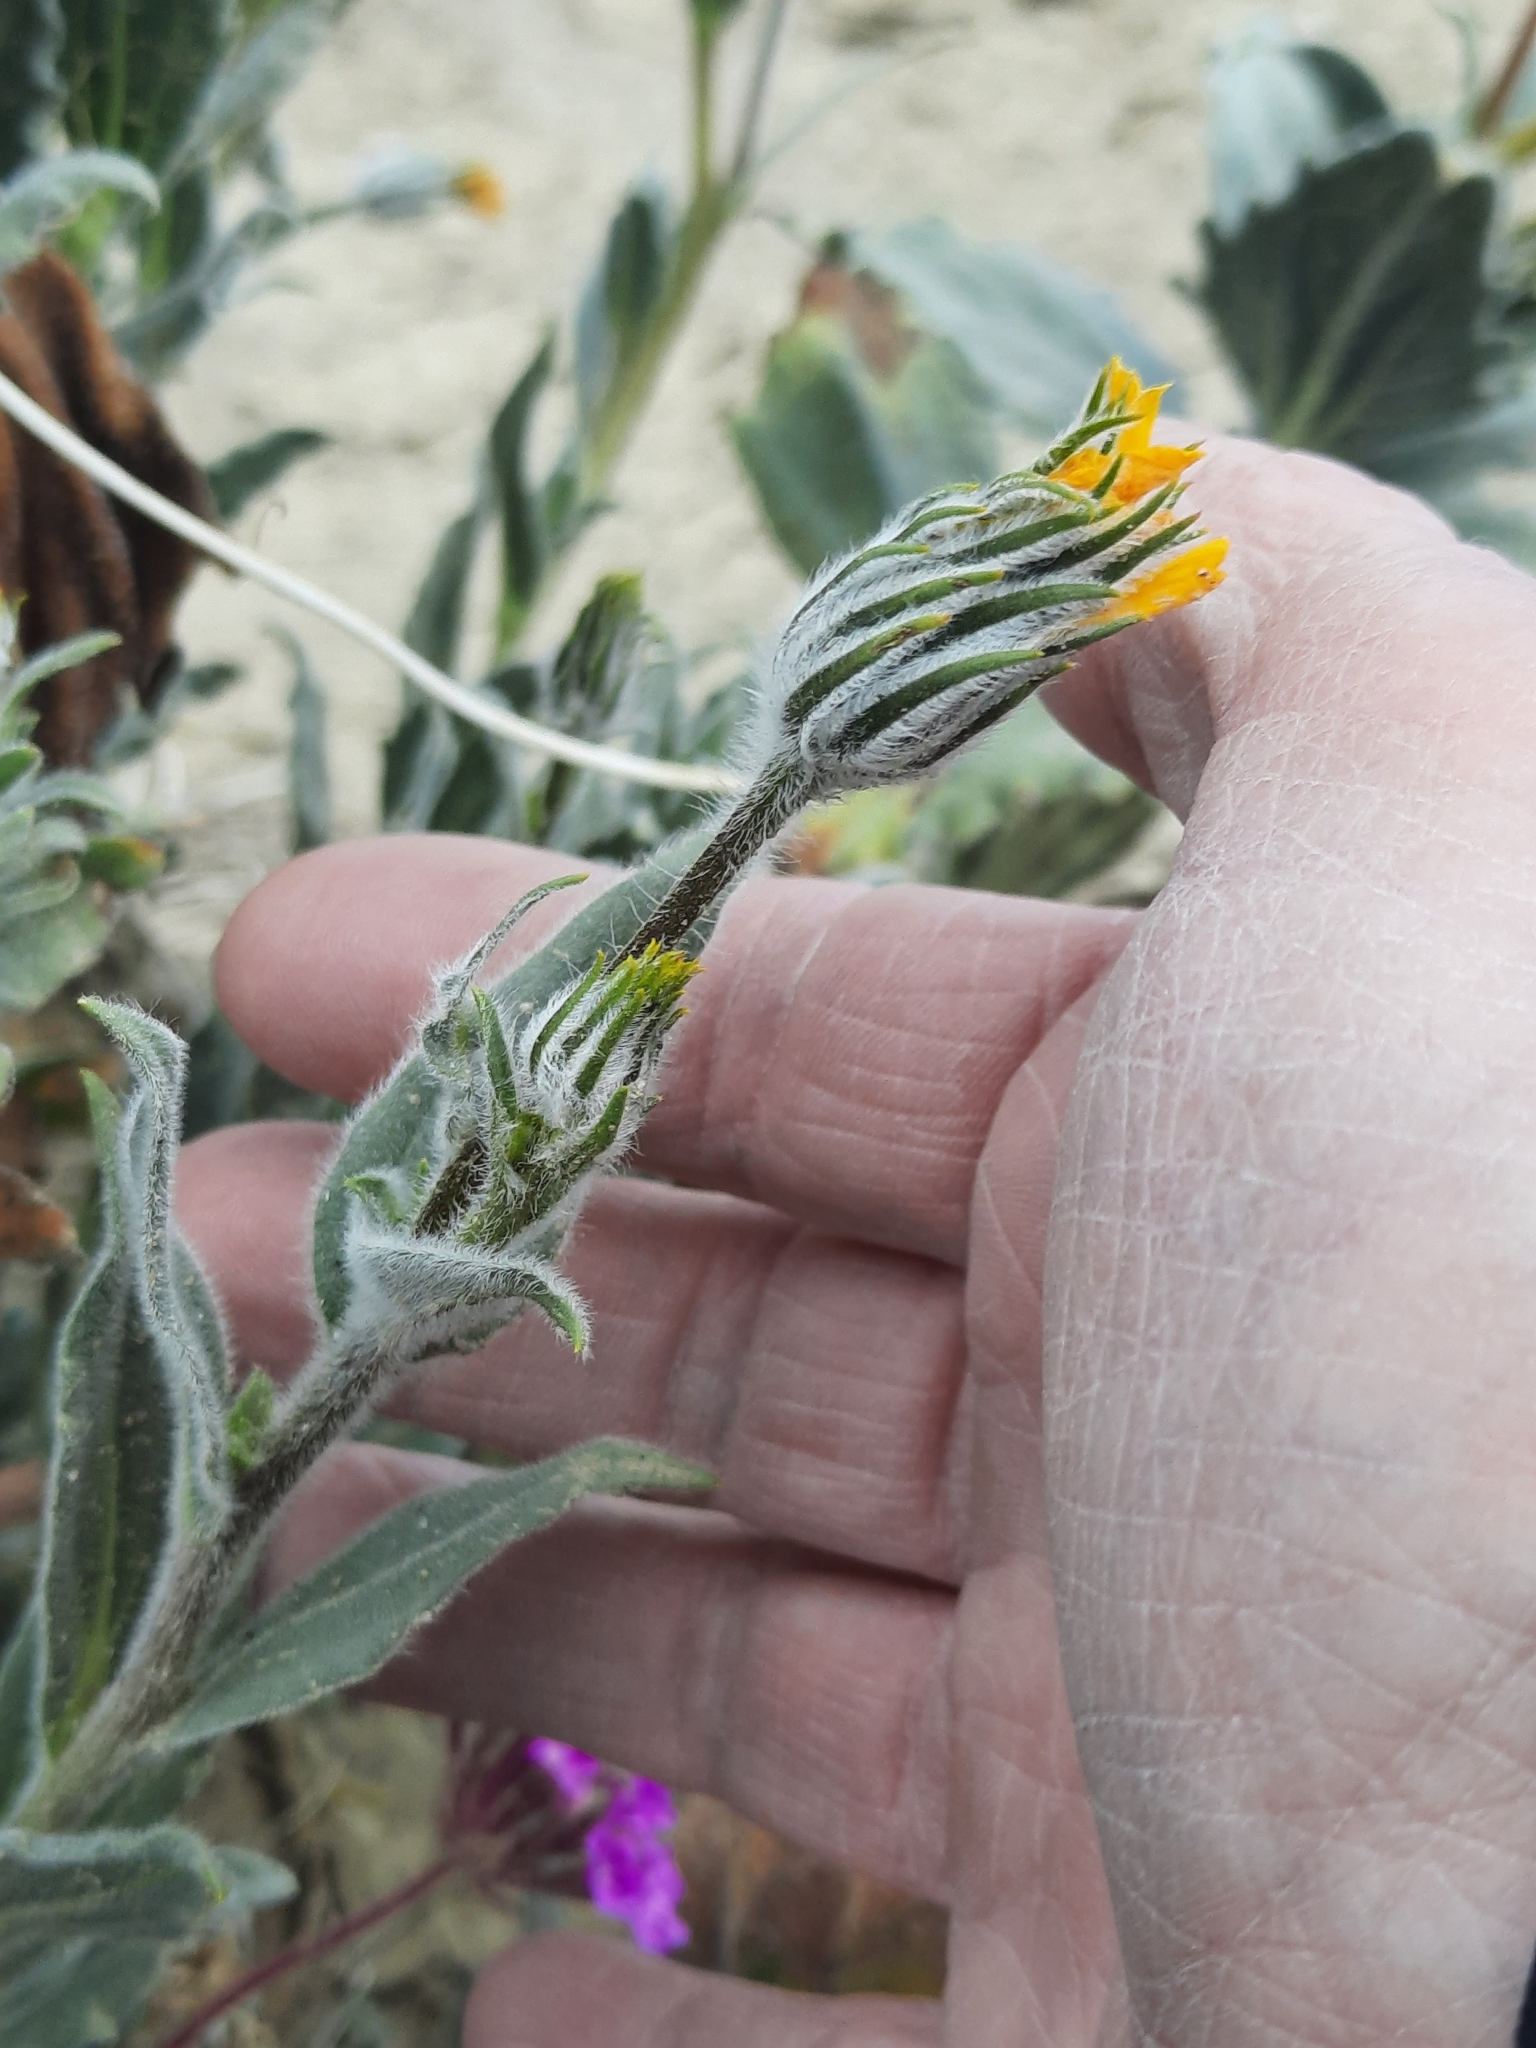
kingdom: Plantae
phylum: Tracheophyta
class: Magnoliopsida
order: Asterales
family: Asteraceae
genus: Geraea
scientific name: Geraea canescens
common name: Desert-gold
